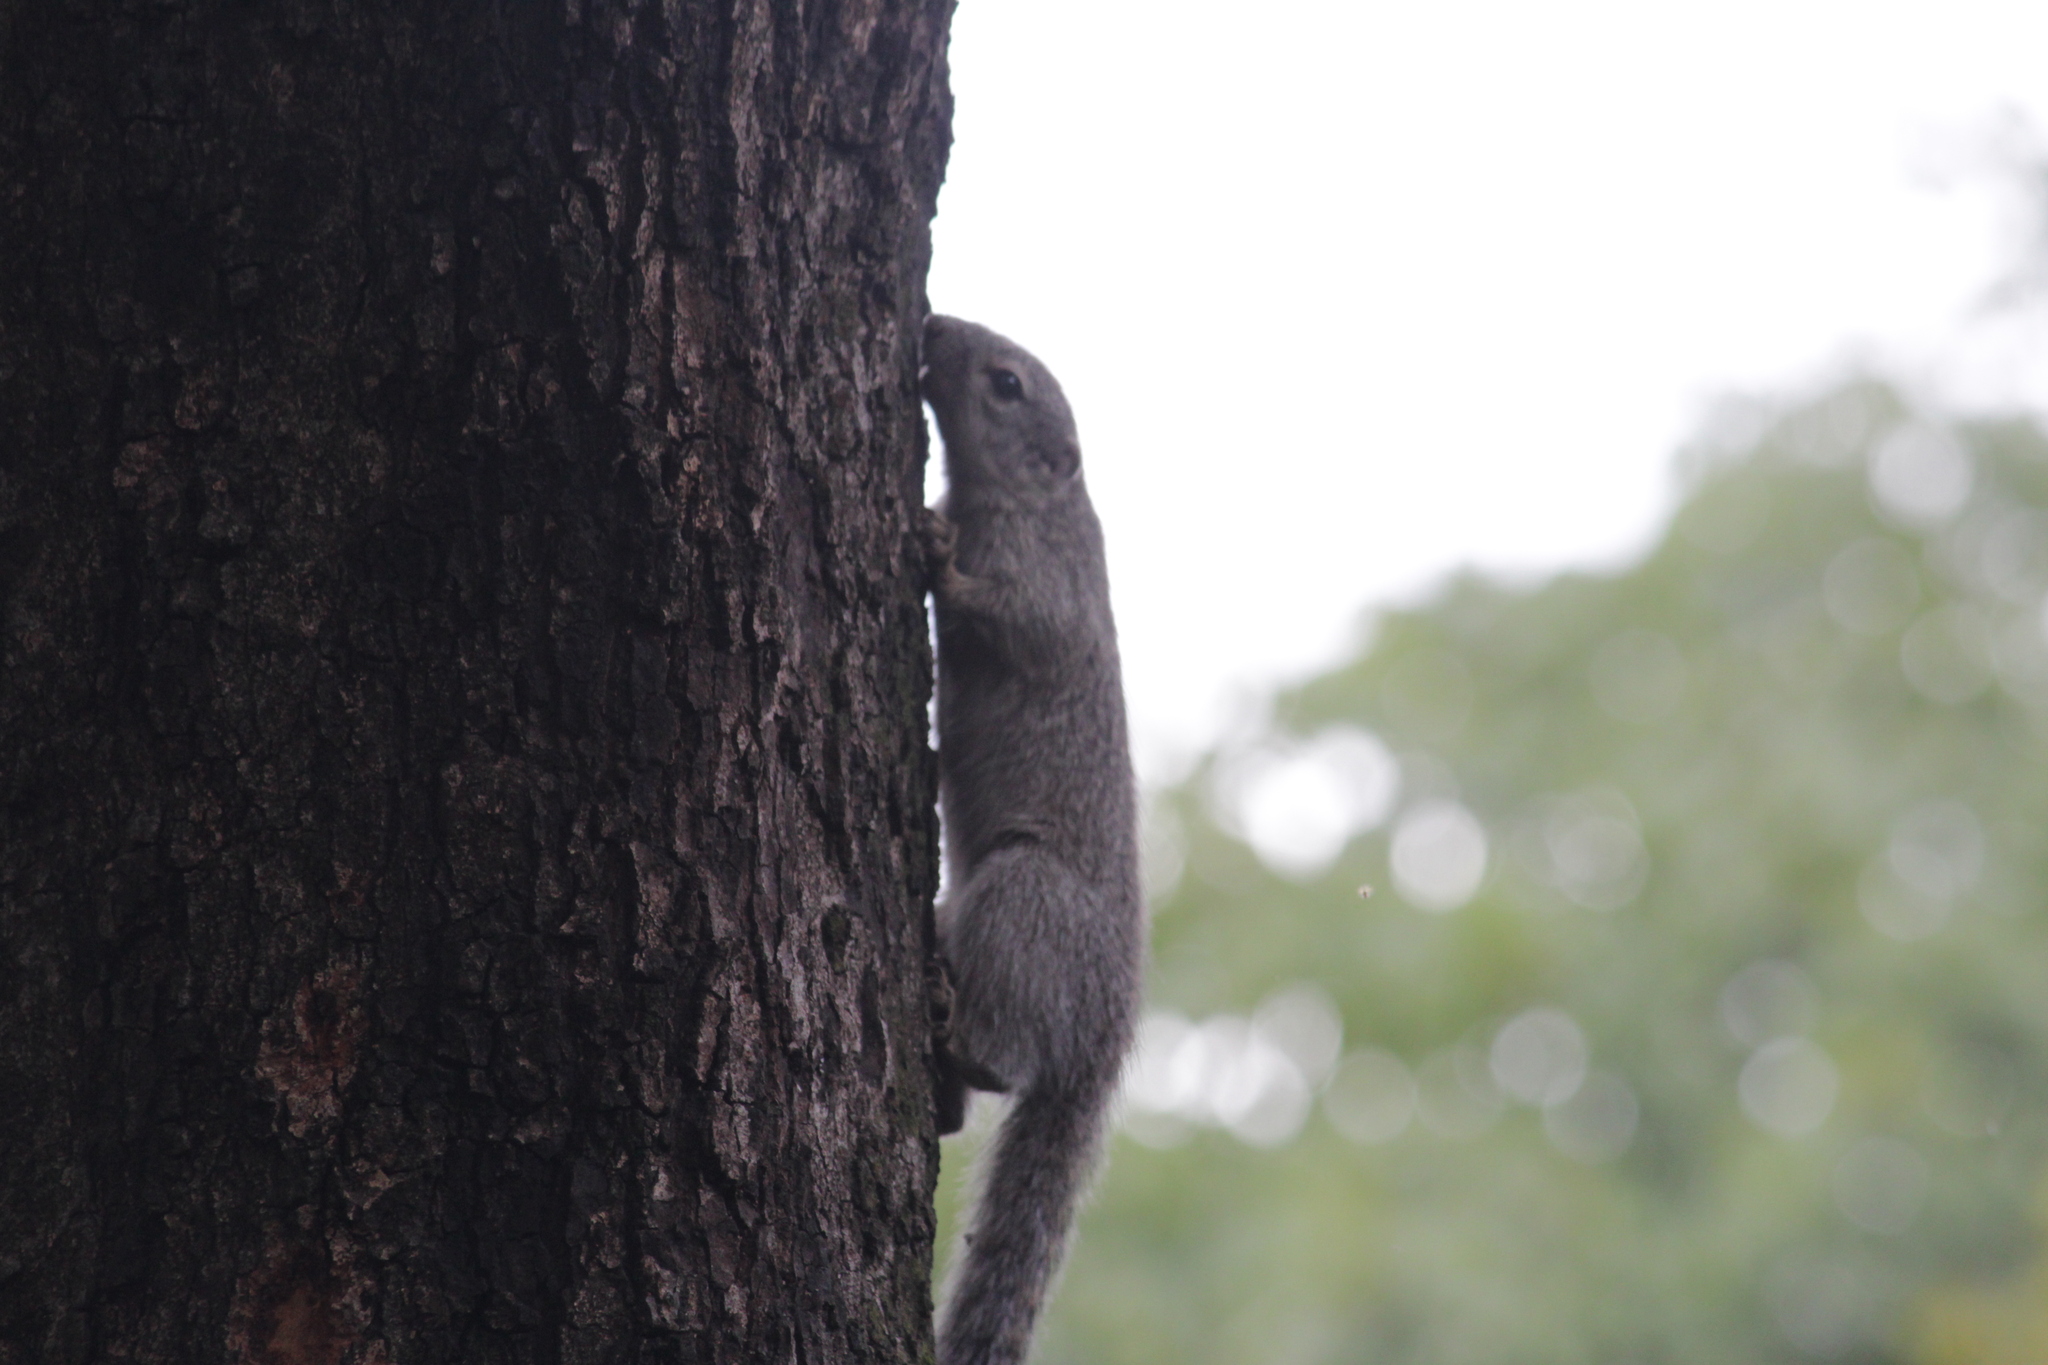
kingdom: Animalia
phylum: Chordata
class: Mammalia
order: Rodentia
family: Sciuridae
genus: Heliosciurus
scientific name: Heliosciurus gambianus
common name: Gambian sun squirrel
